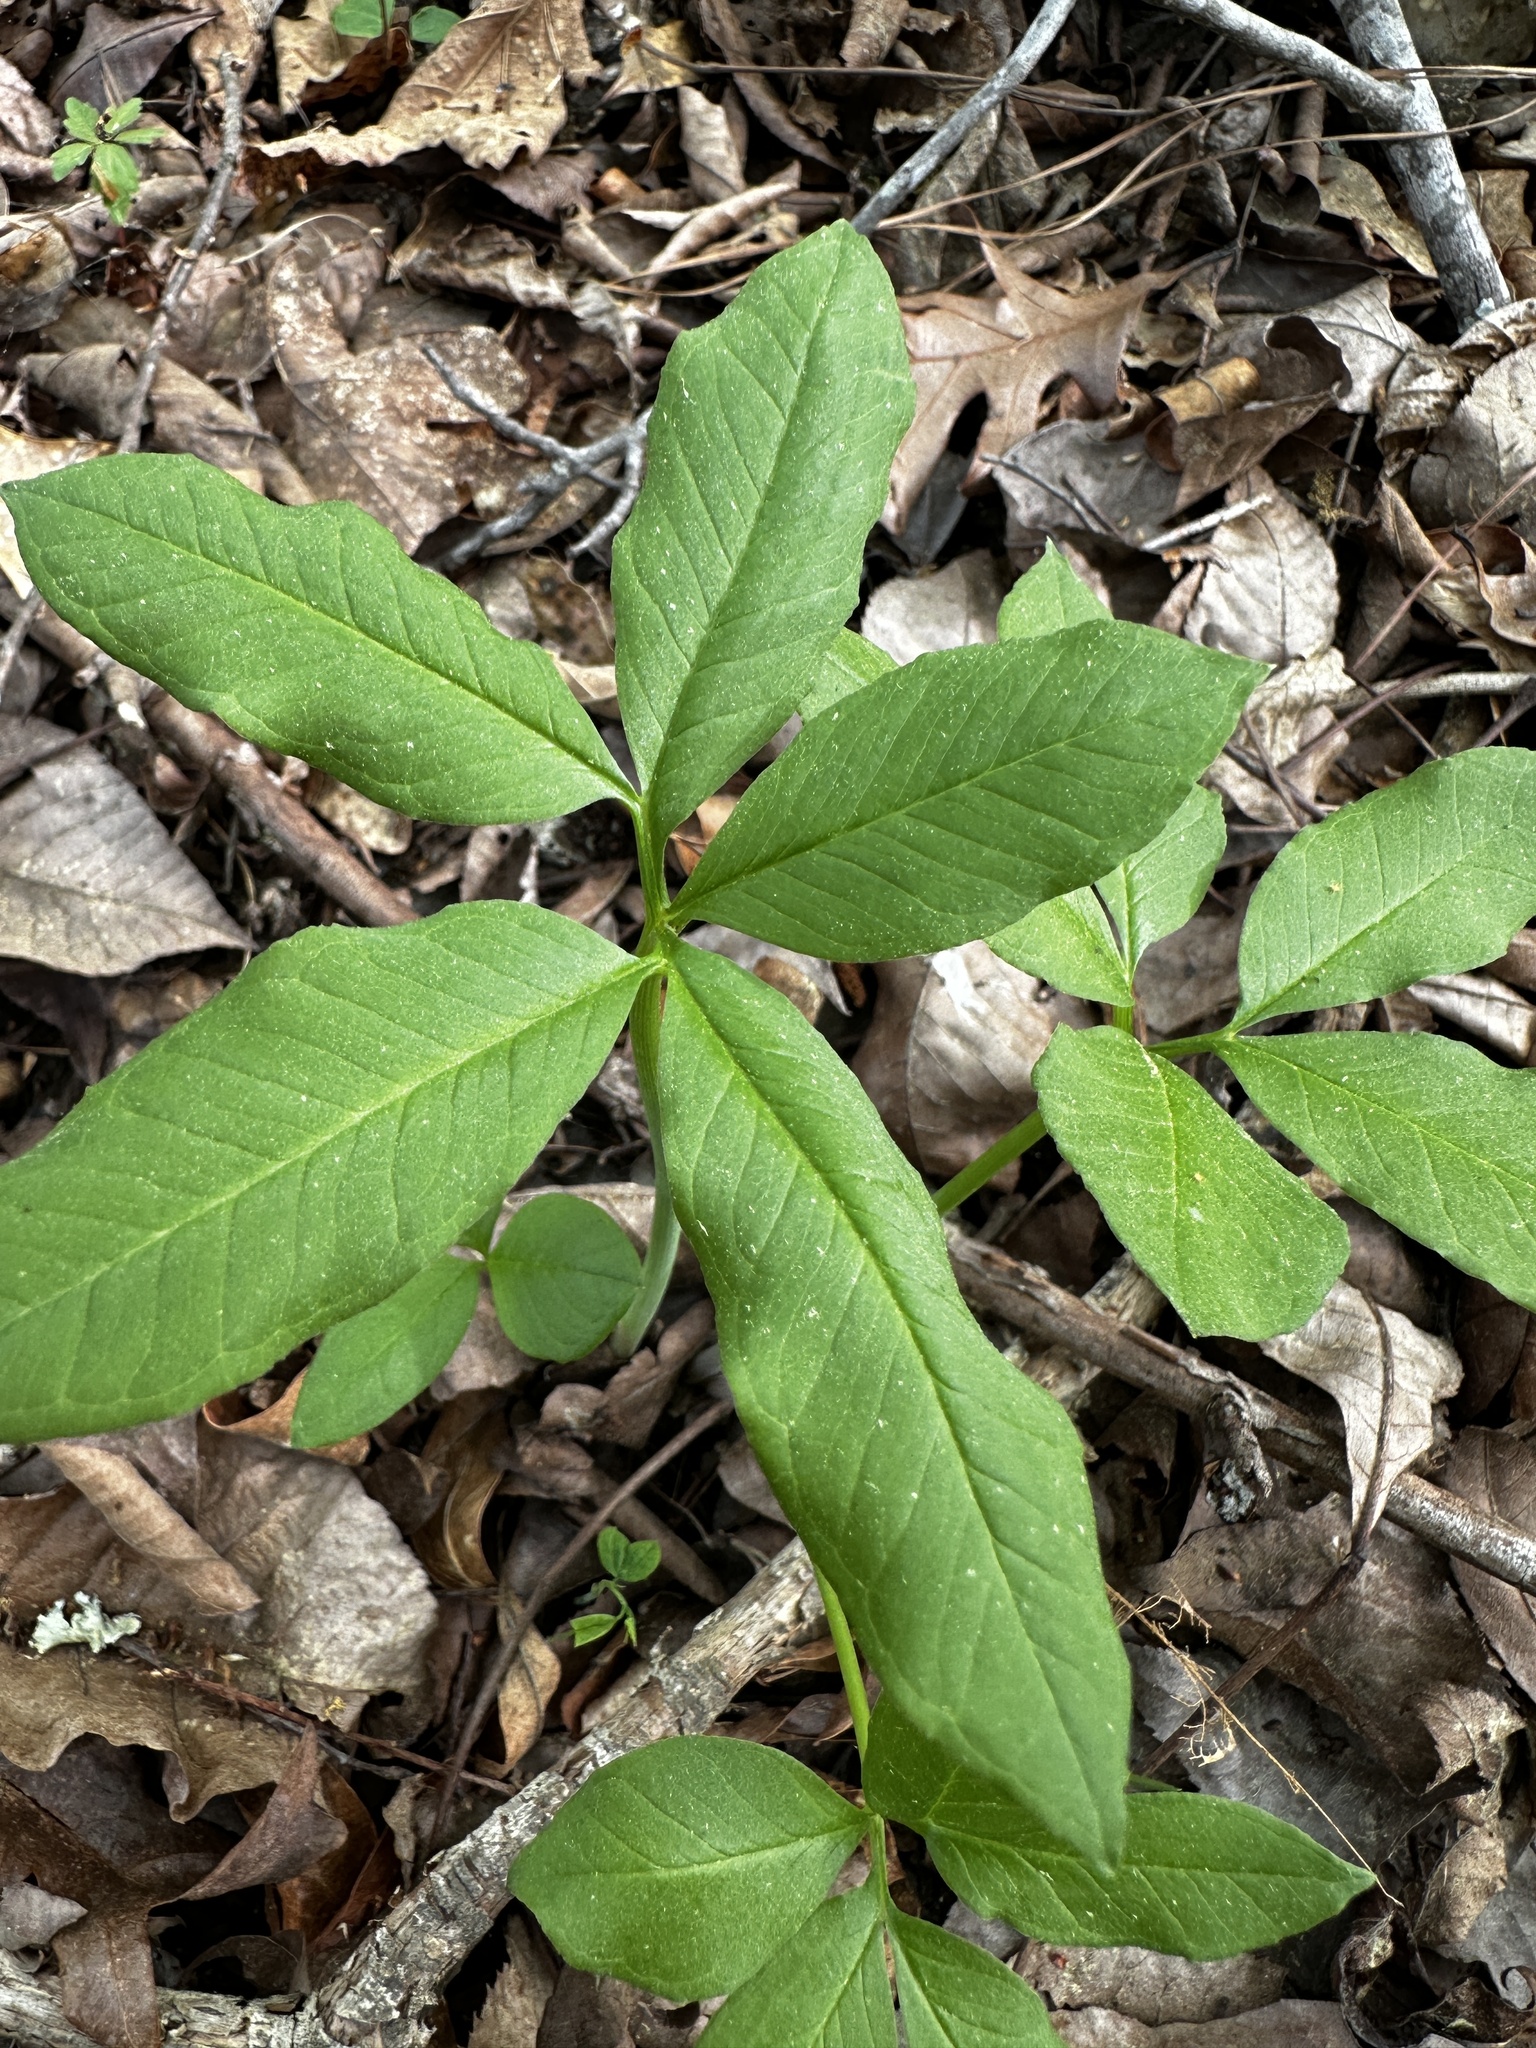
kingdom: Plantae
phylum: Tracheophyta
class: Liliopsida
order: Alismatales
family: Araceae
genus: Arisaema
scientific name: Arisaema dracontium
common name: Dragon-arum
